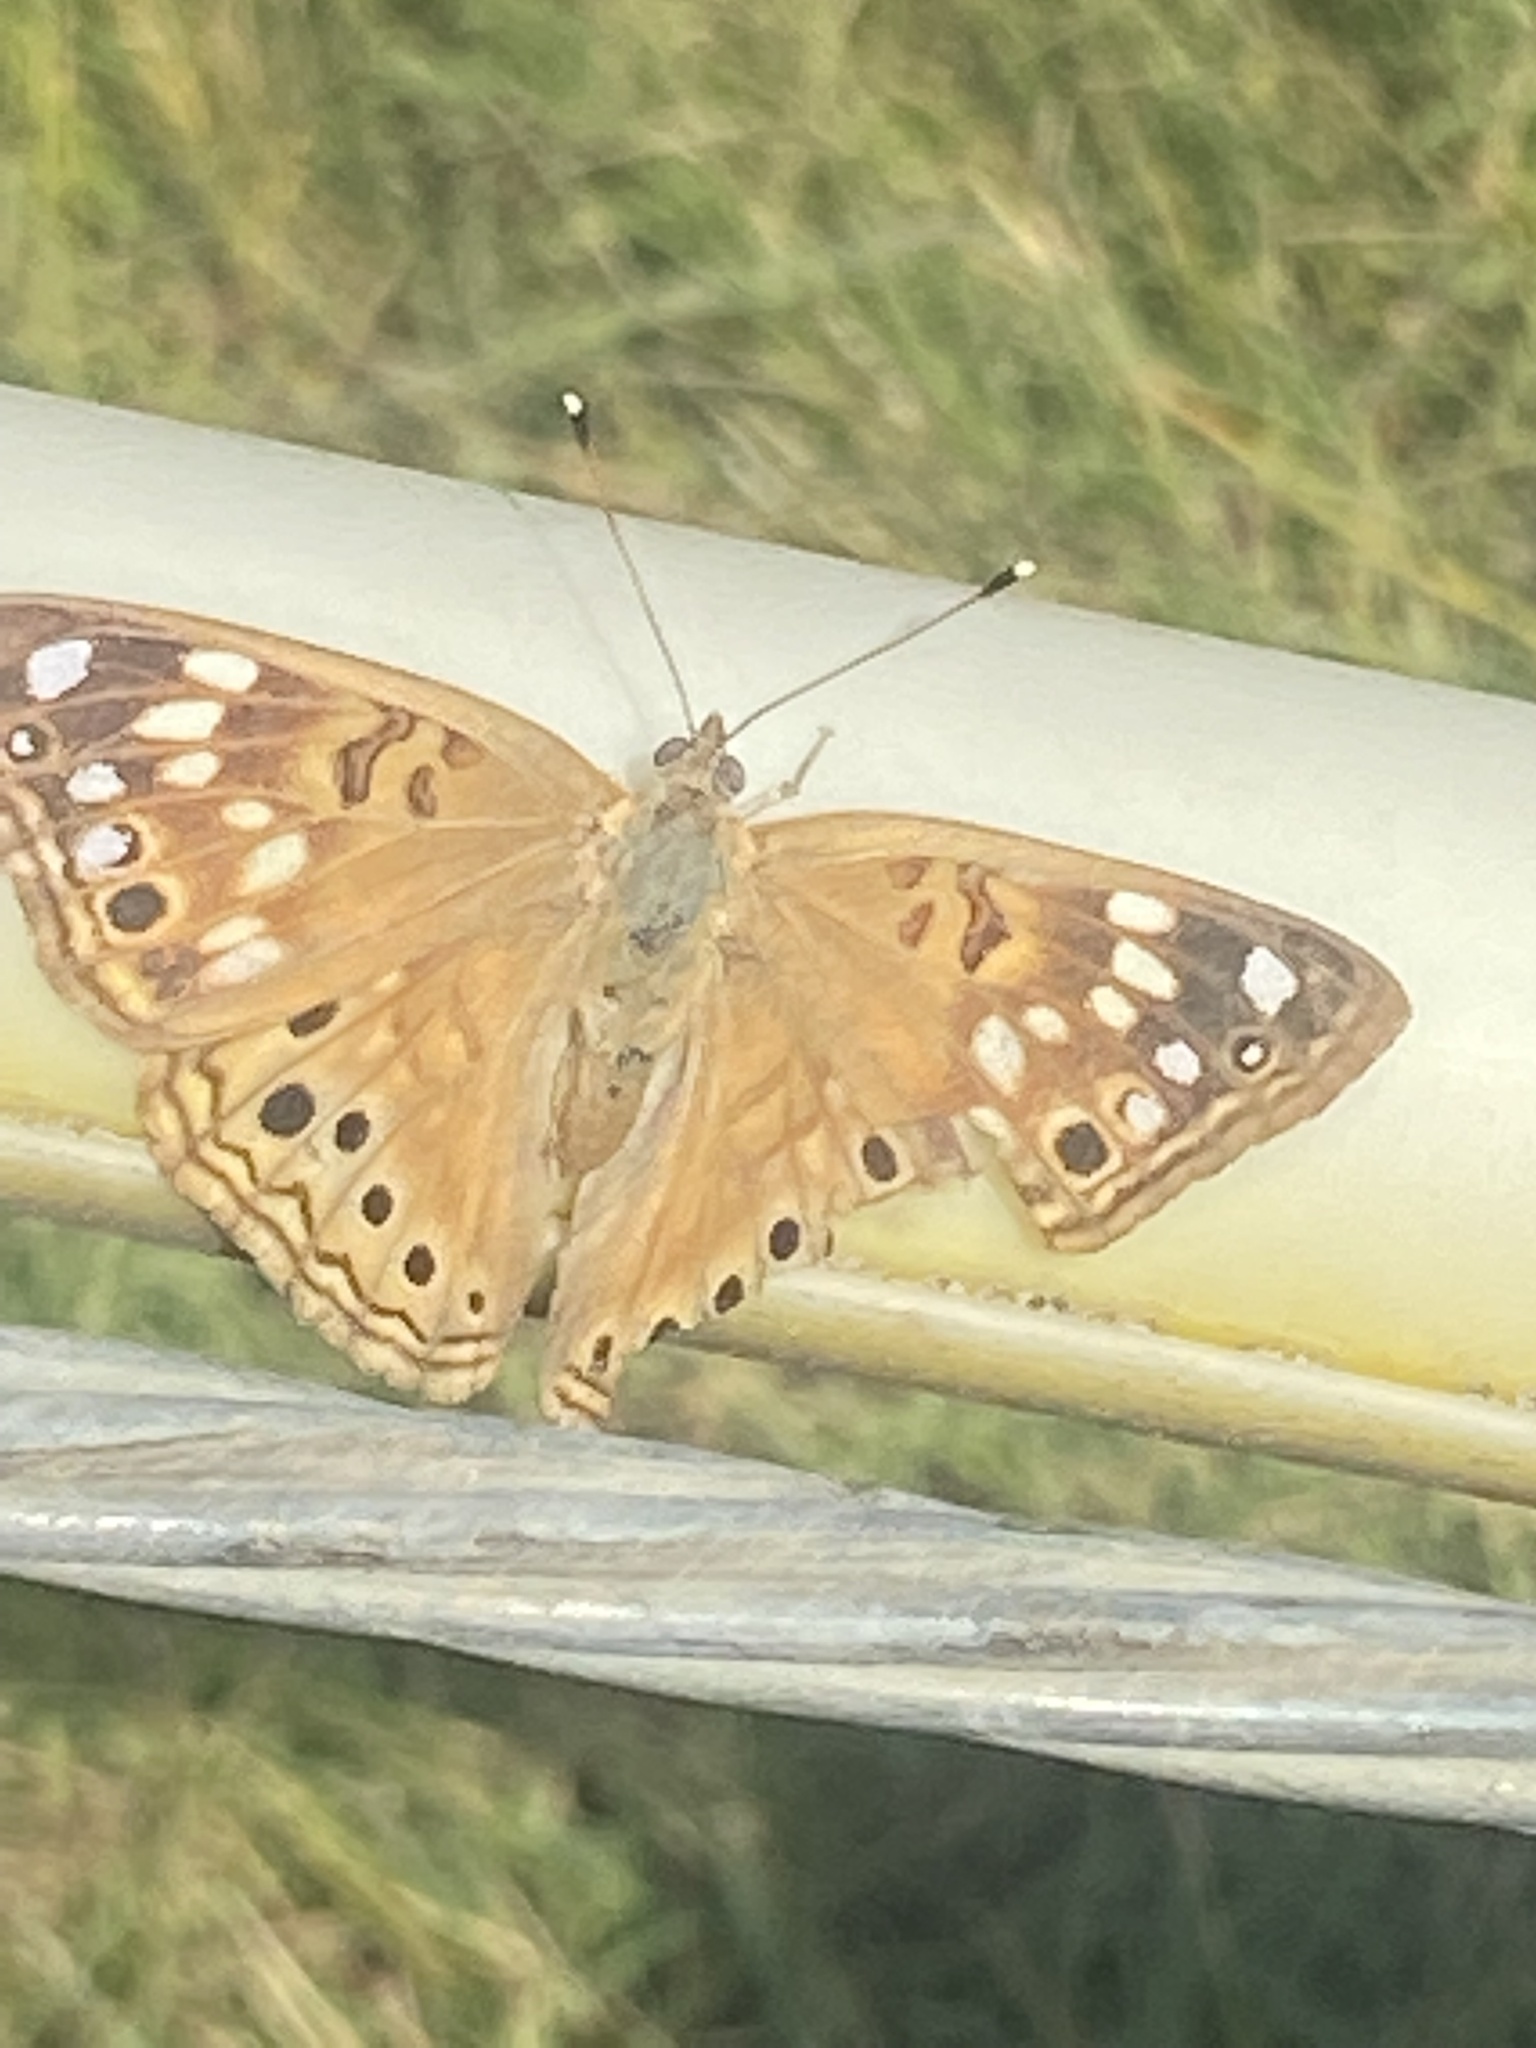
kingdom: Animalia
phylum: Arthropoda
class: Insecta
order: Lepidoptera
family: Nymphalidae
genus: Asterocampa
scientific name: Asterocampa celtis
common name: Hackberry emperor
